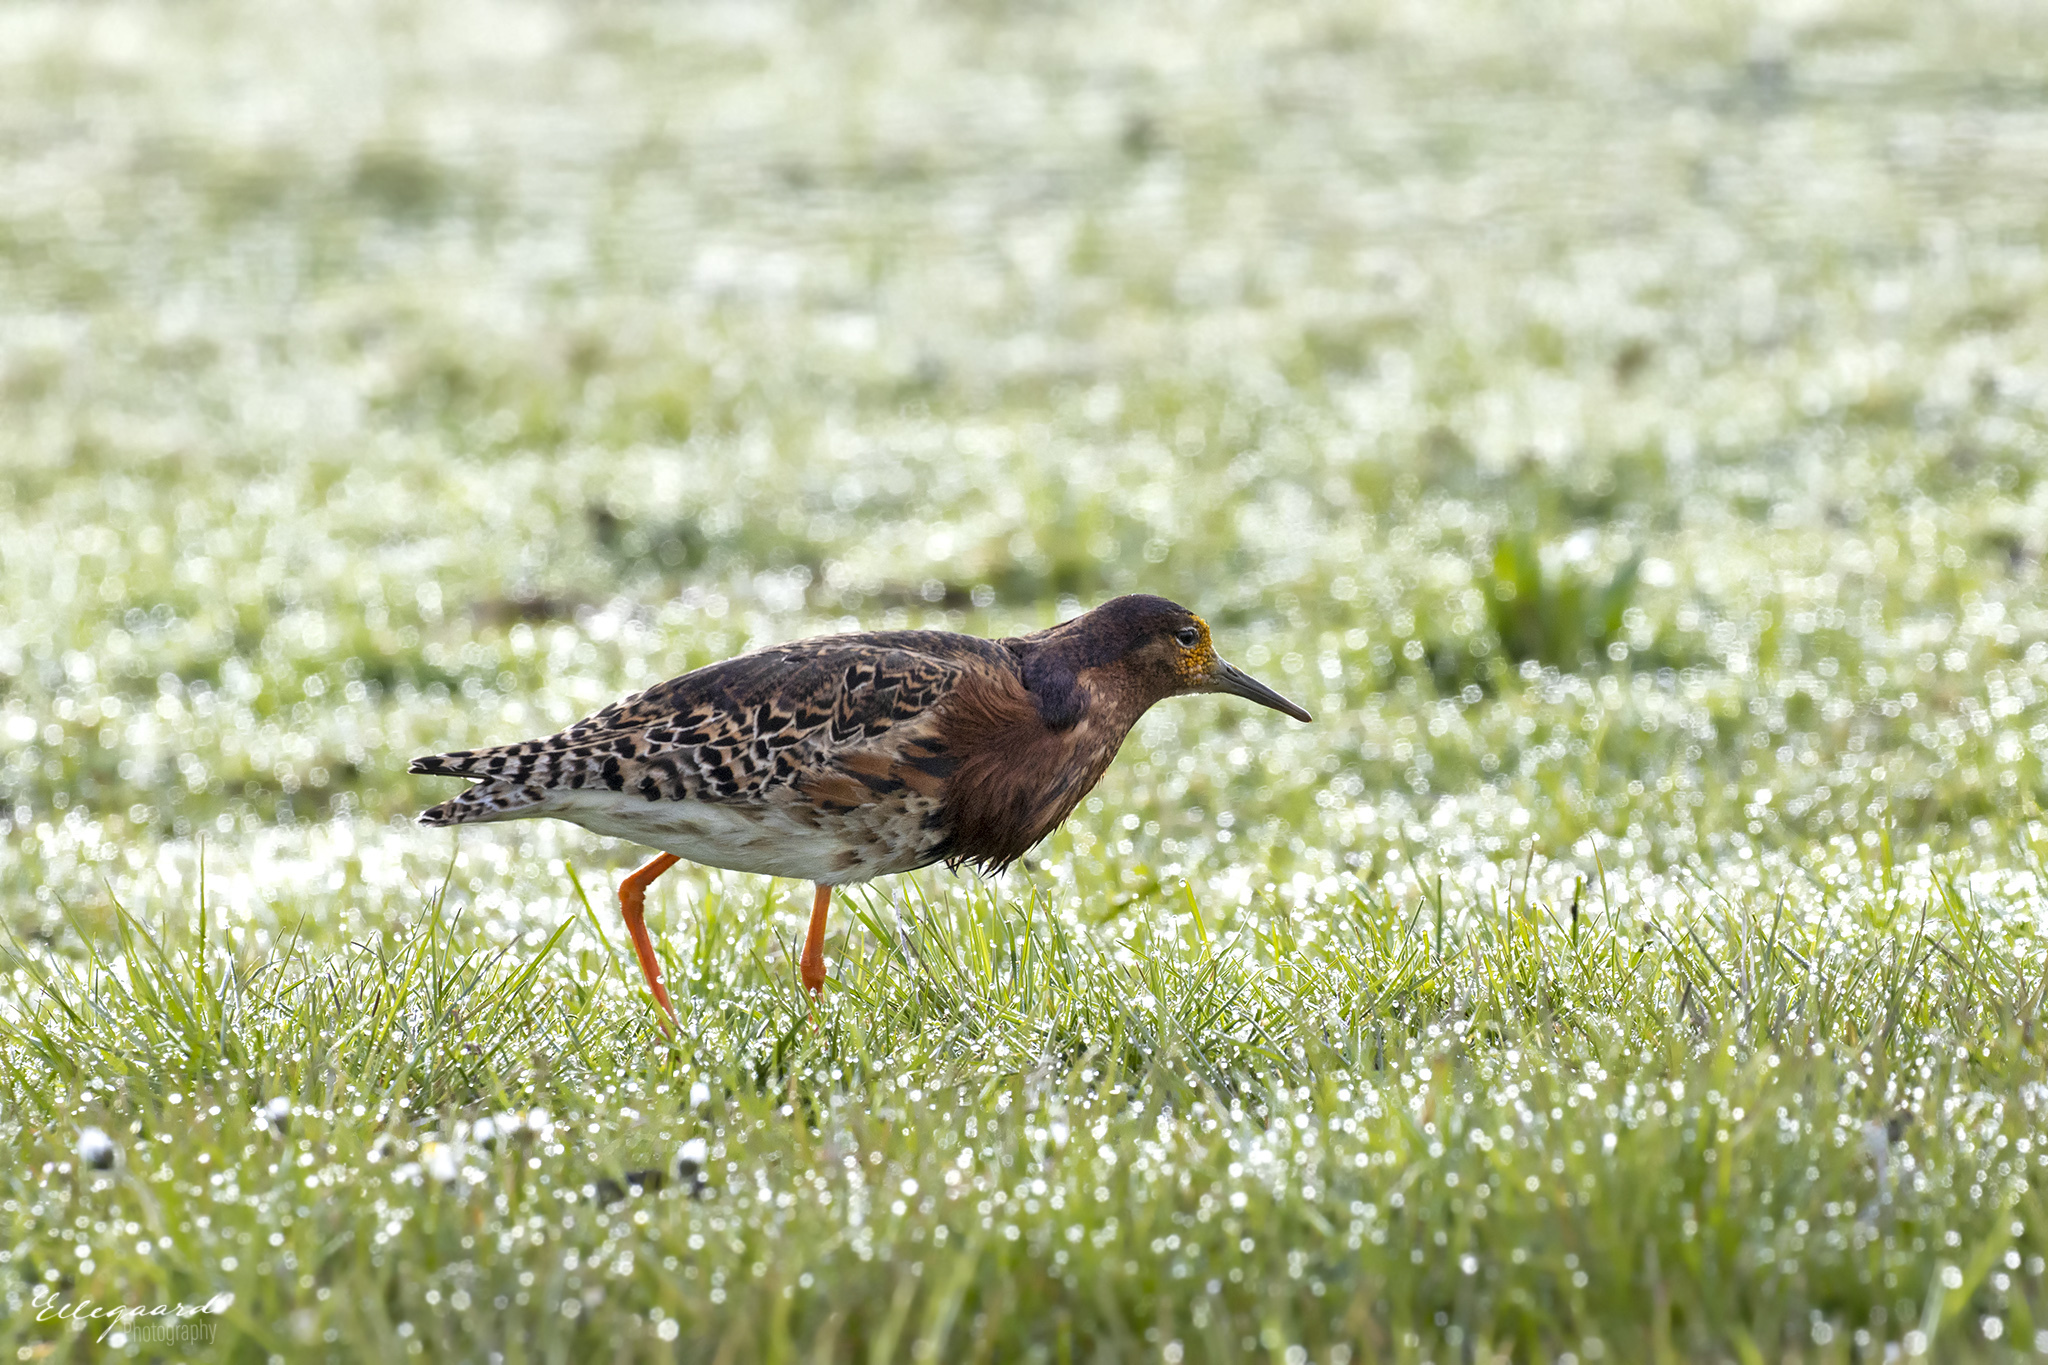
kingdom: Animalia
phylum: Chordata
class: Aves
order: Charadriiformes
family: Scolopacidae
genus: Calidris
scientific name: Calidris pugnax
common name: Ruff
